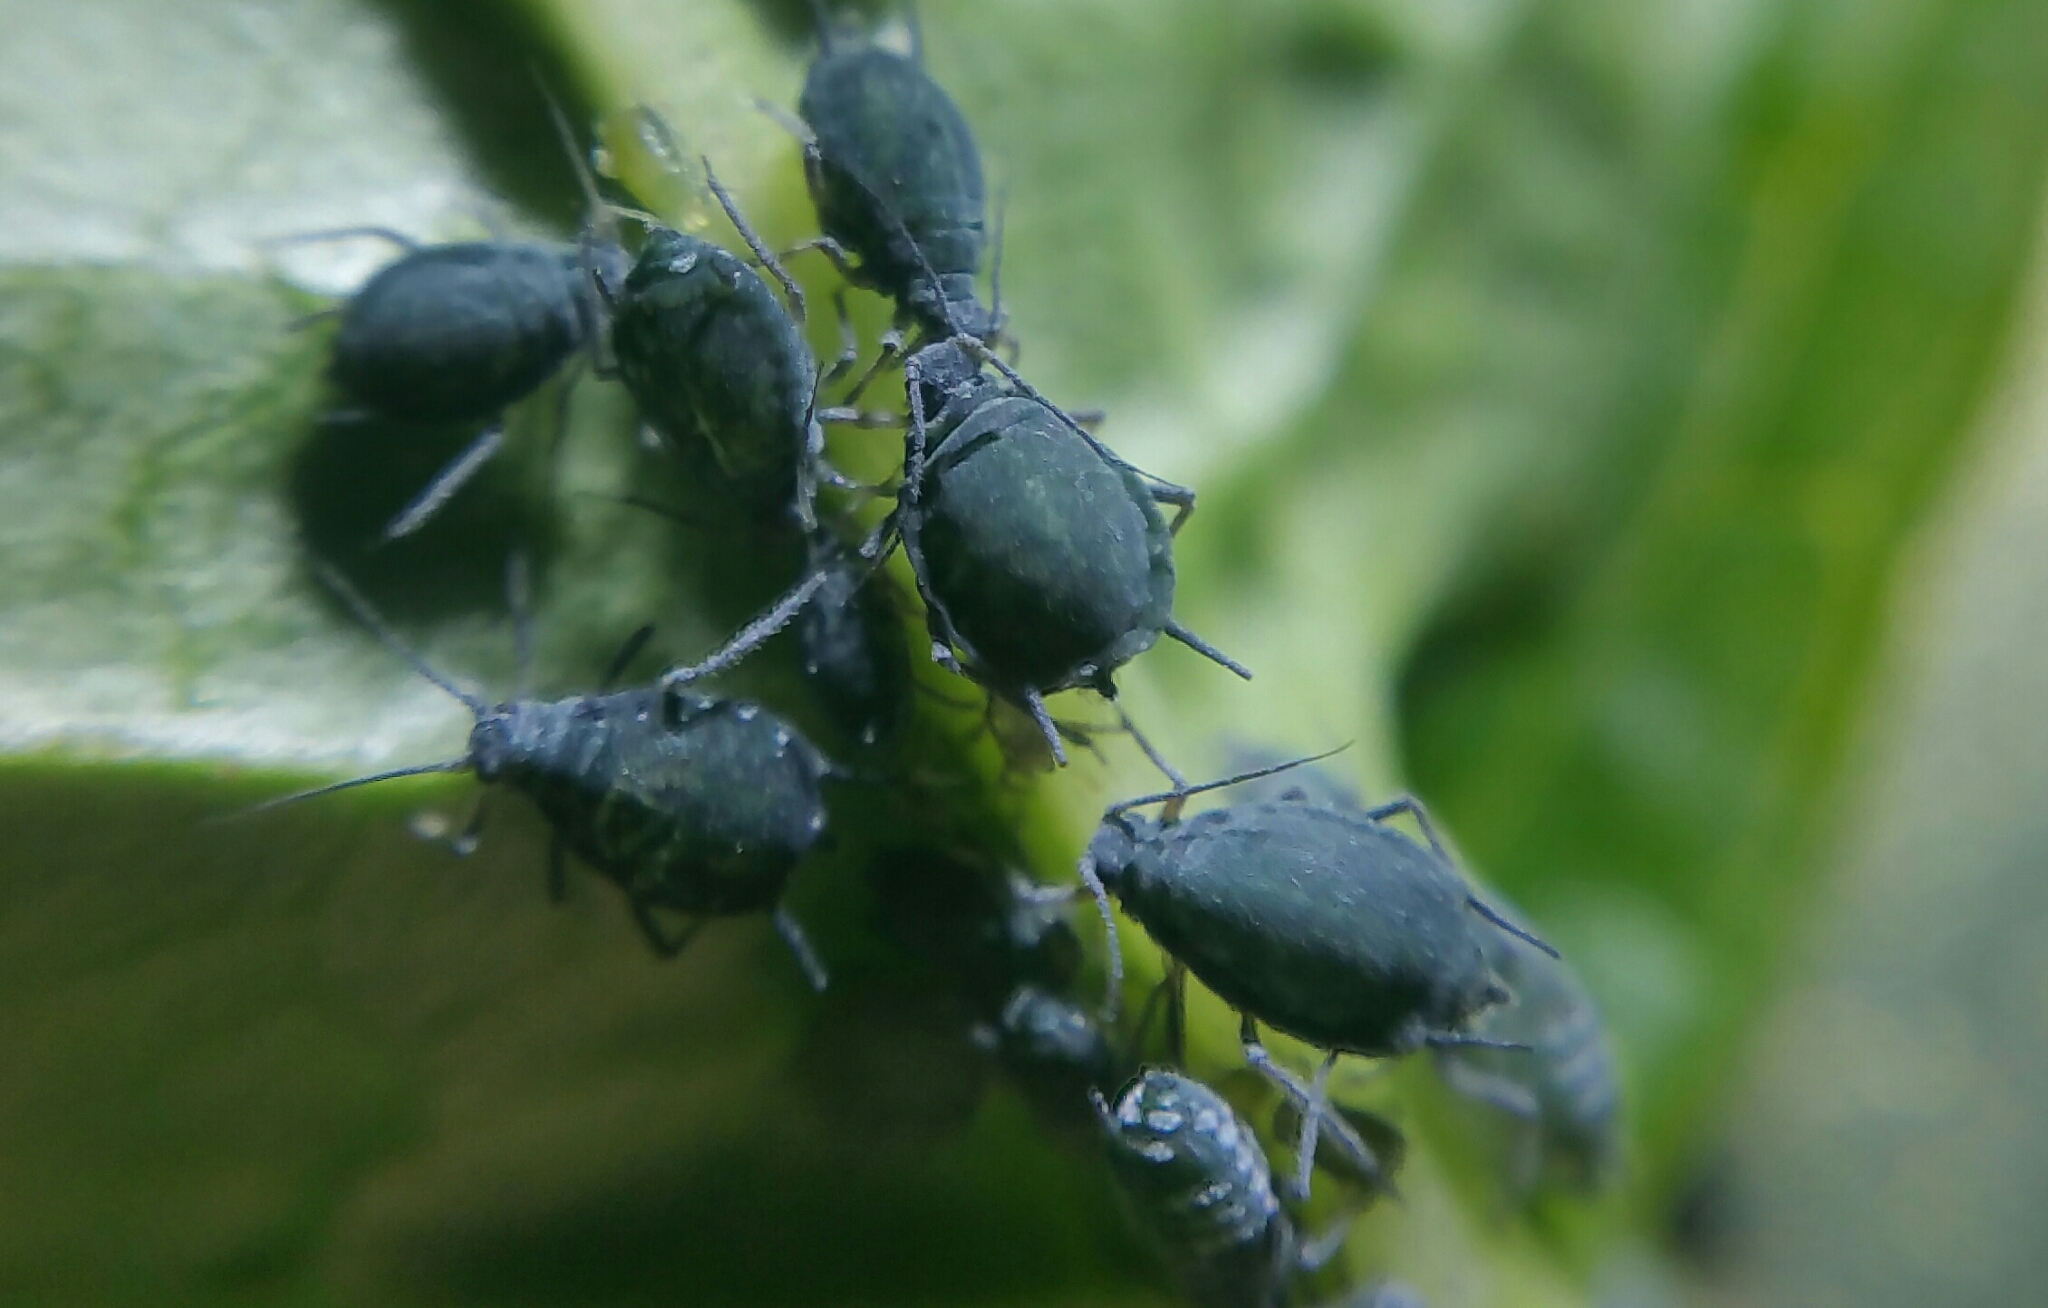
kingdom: Animalia
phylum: Arthropoda
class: Insecta
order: Hemiptera
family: Aphididae
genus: Aphis
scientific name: Aphis sambuci
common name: Elder aphid
